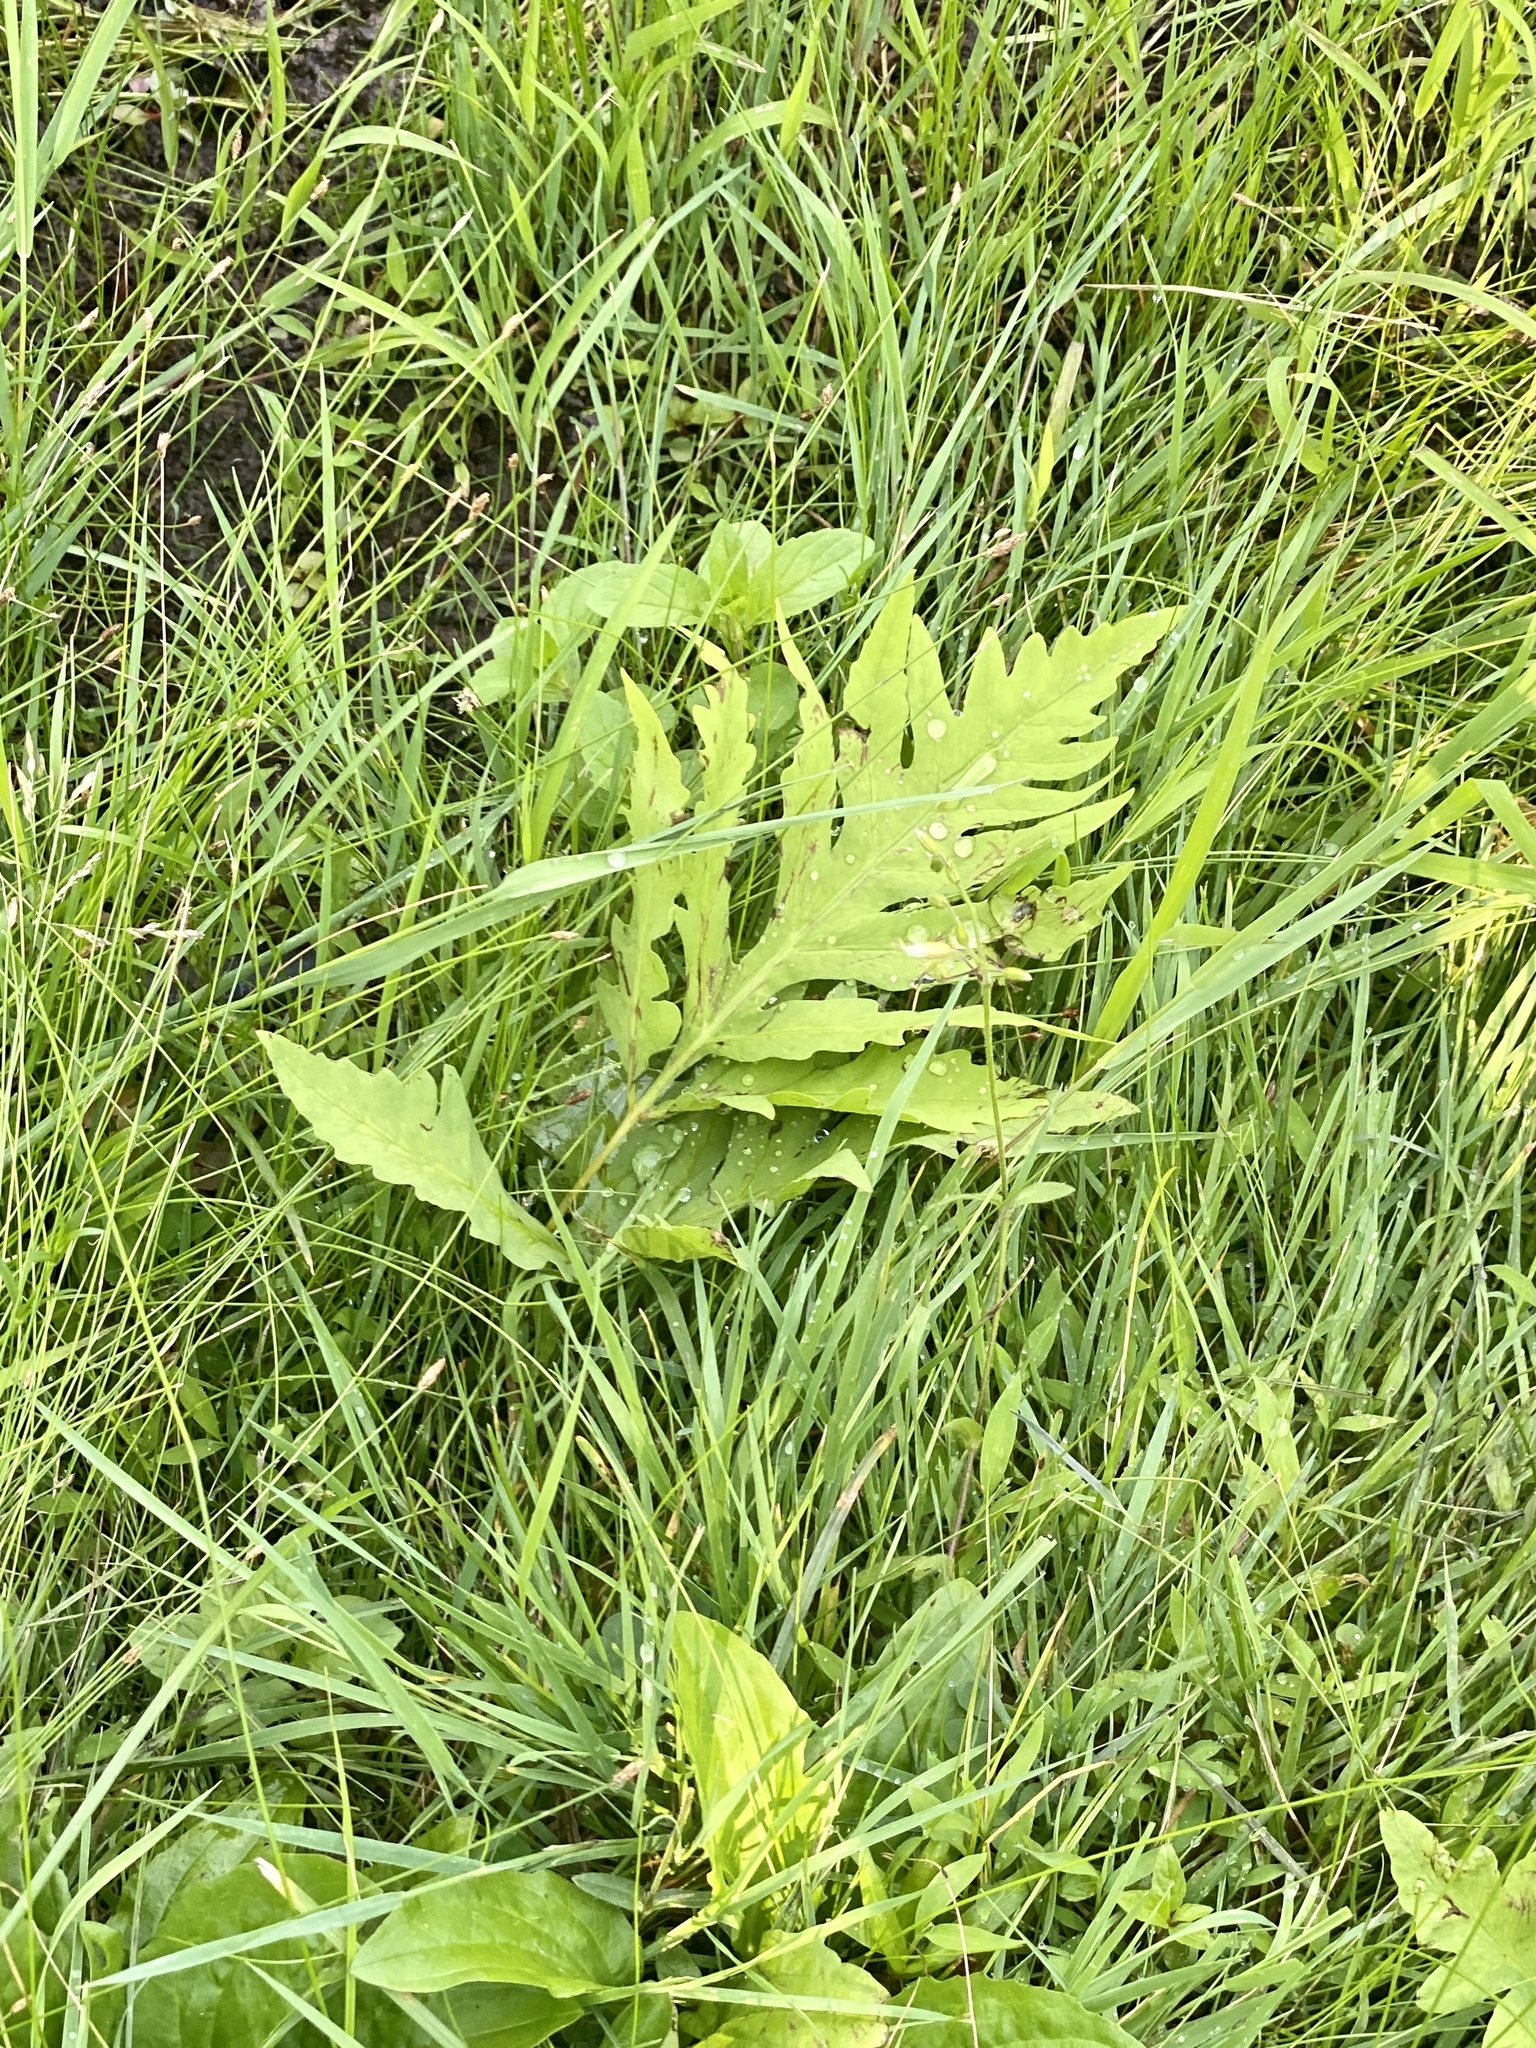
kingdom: Plantae
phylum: Tracheophyta
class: Polypodiopsida
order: Polypodiales
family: Onocleaceae
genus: Onoclea
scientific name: Onoclea sensibilis
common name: Sensitive fern
